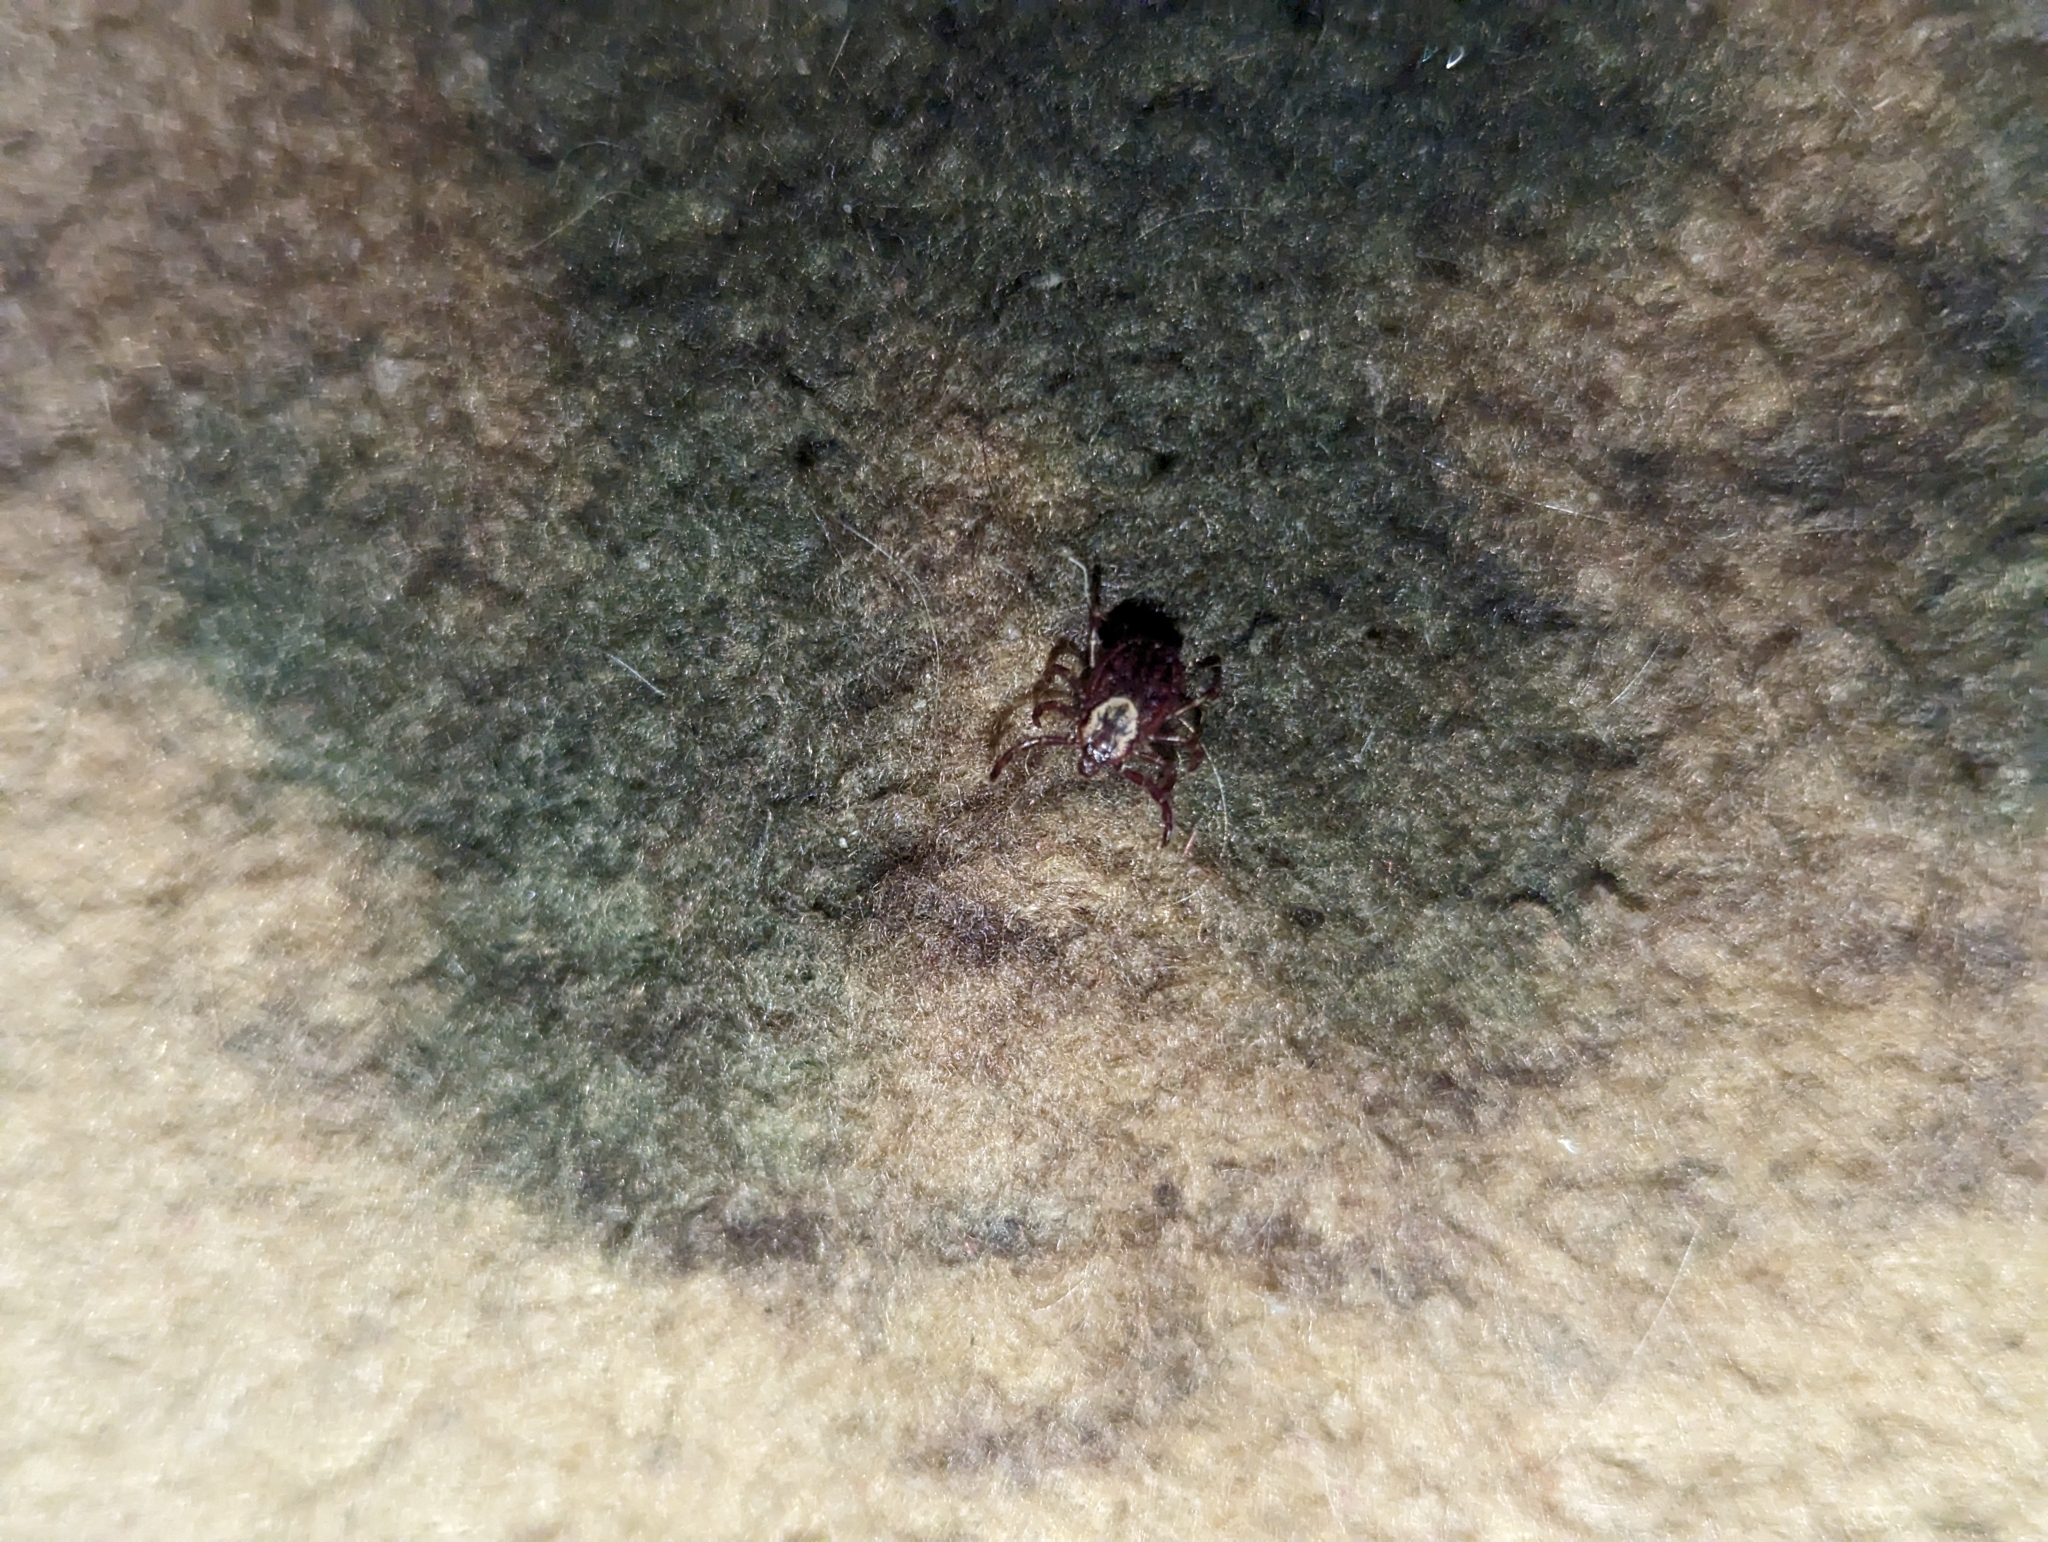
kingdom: Animalia
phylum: Arthropoda
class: Arachnida
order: Ixodida
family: Ixodidae
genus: Dermacentor
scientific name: Dermacentor variabilis
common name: American dog tick
